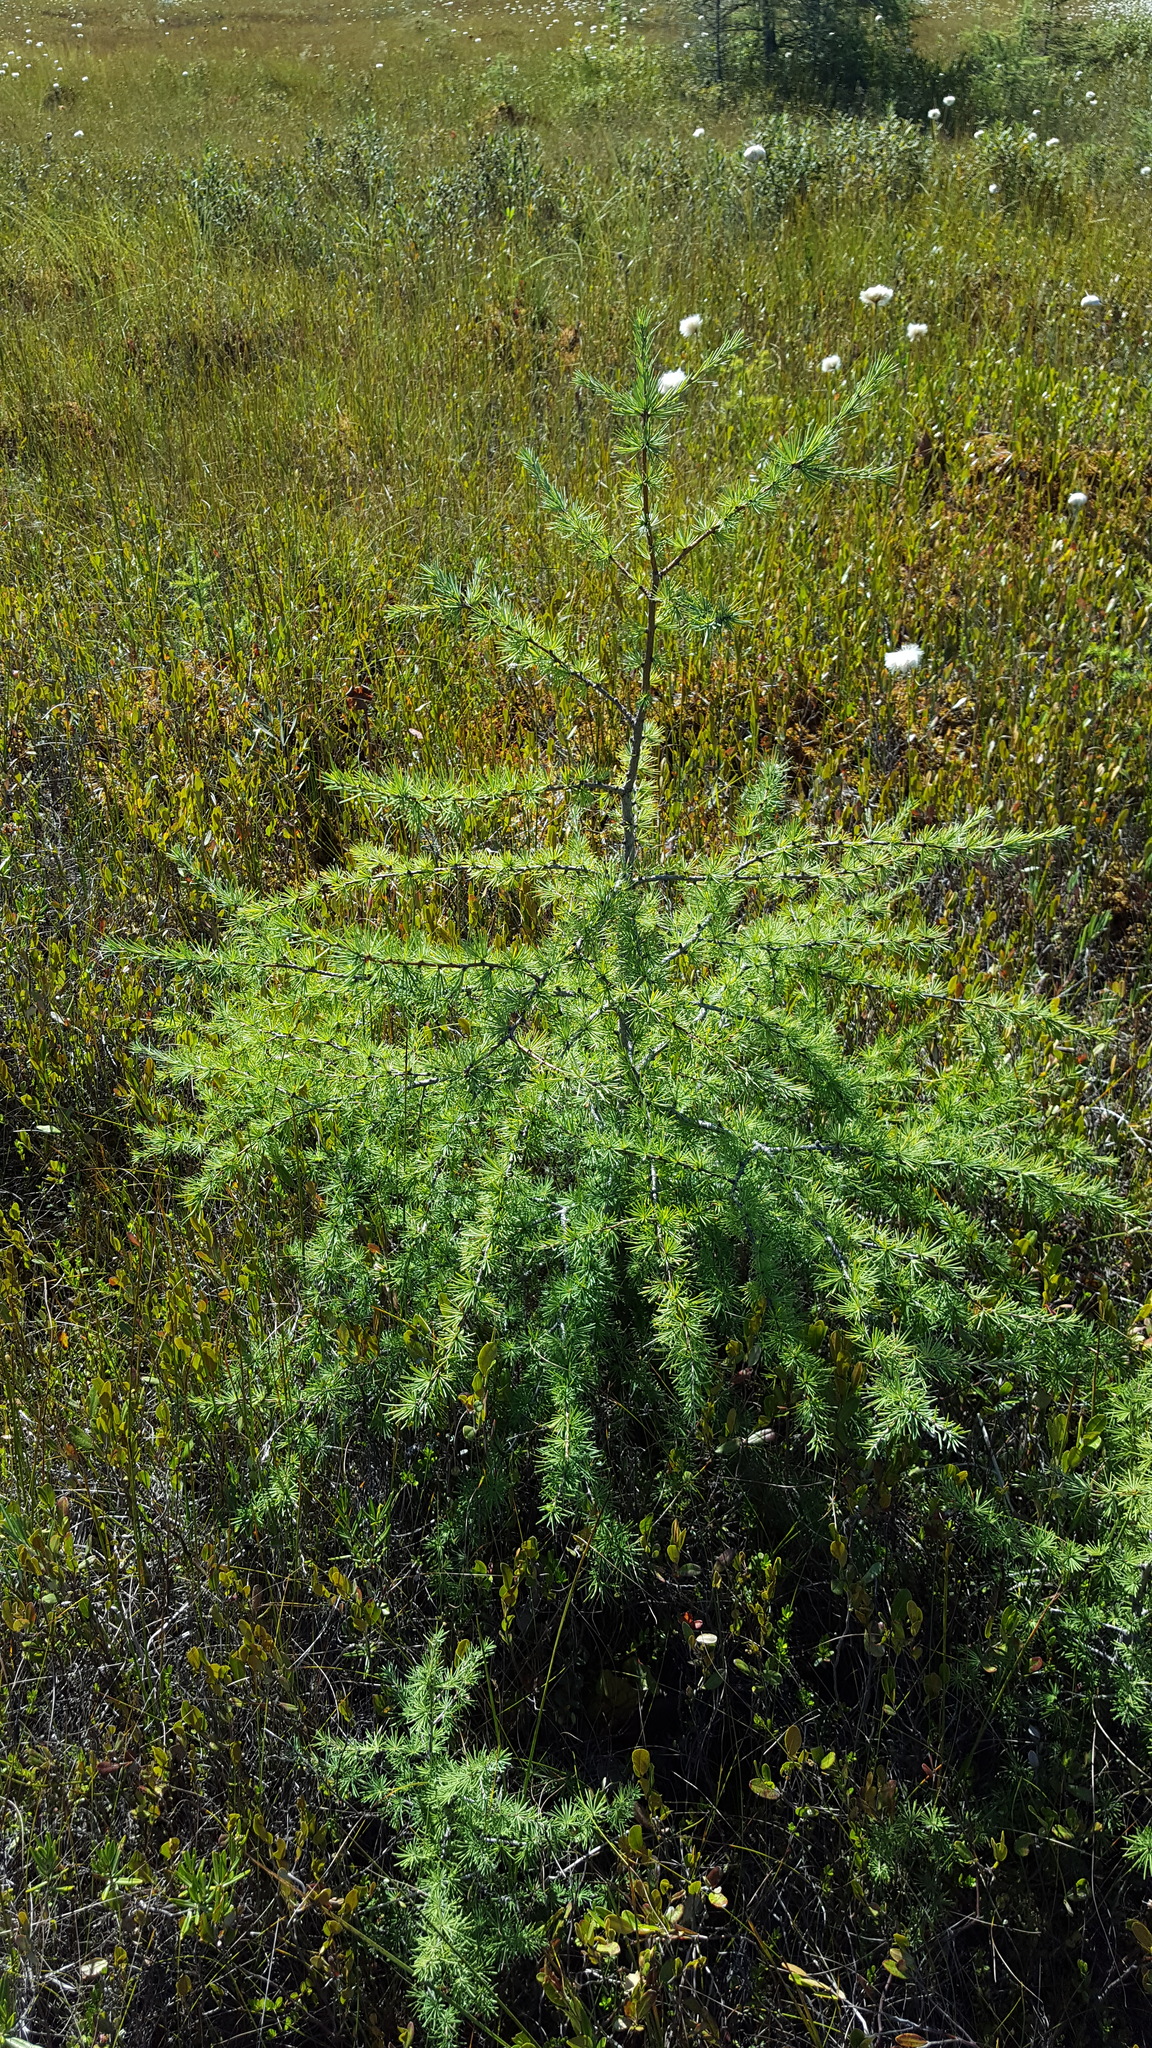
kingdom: Plantae
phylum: Tracheophyta
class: Pinopsida
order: Pinales
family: Pinaceae
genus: Larix
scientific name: Larix laricina
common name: American larch
